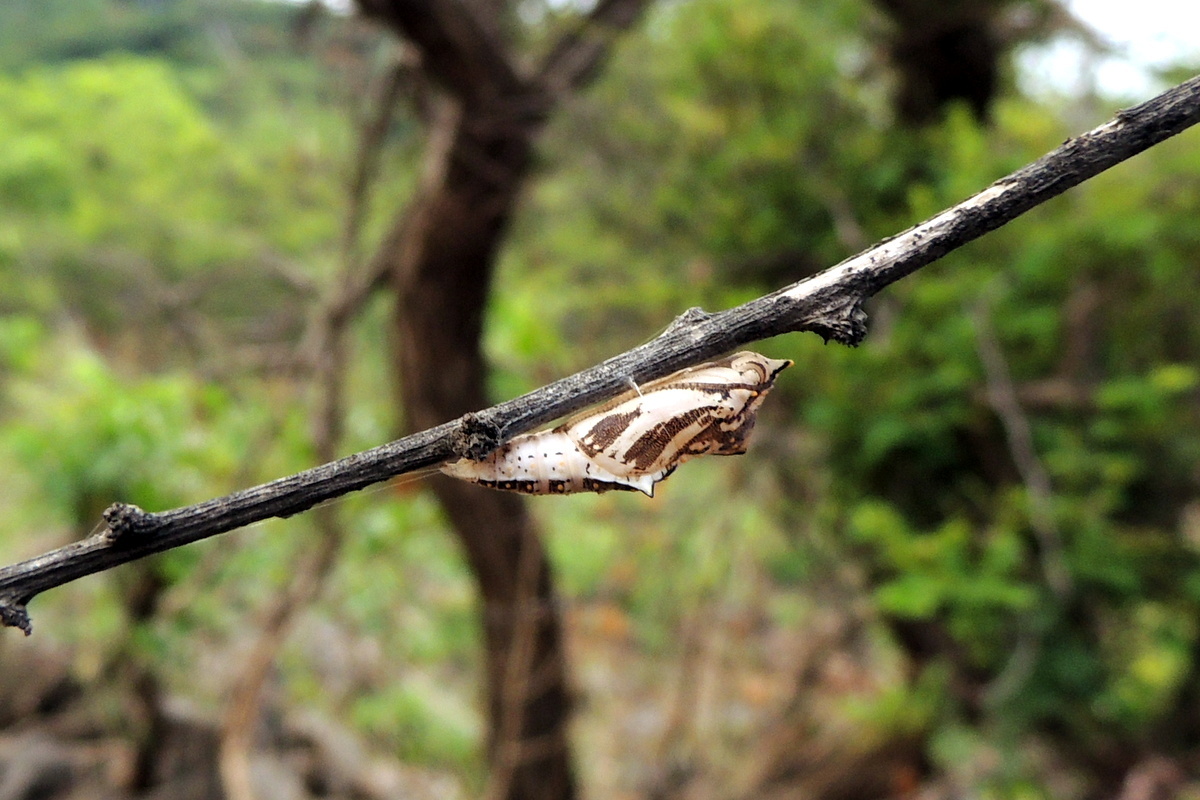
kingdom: Animalia
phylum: Arthropoda
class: Insecta
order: Lepidoptera
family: Pieridae
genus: Belenois
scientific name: Belenois aurota
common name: Brown-veined white
